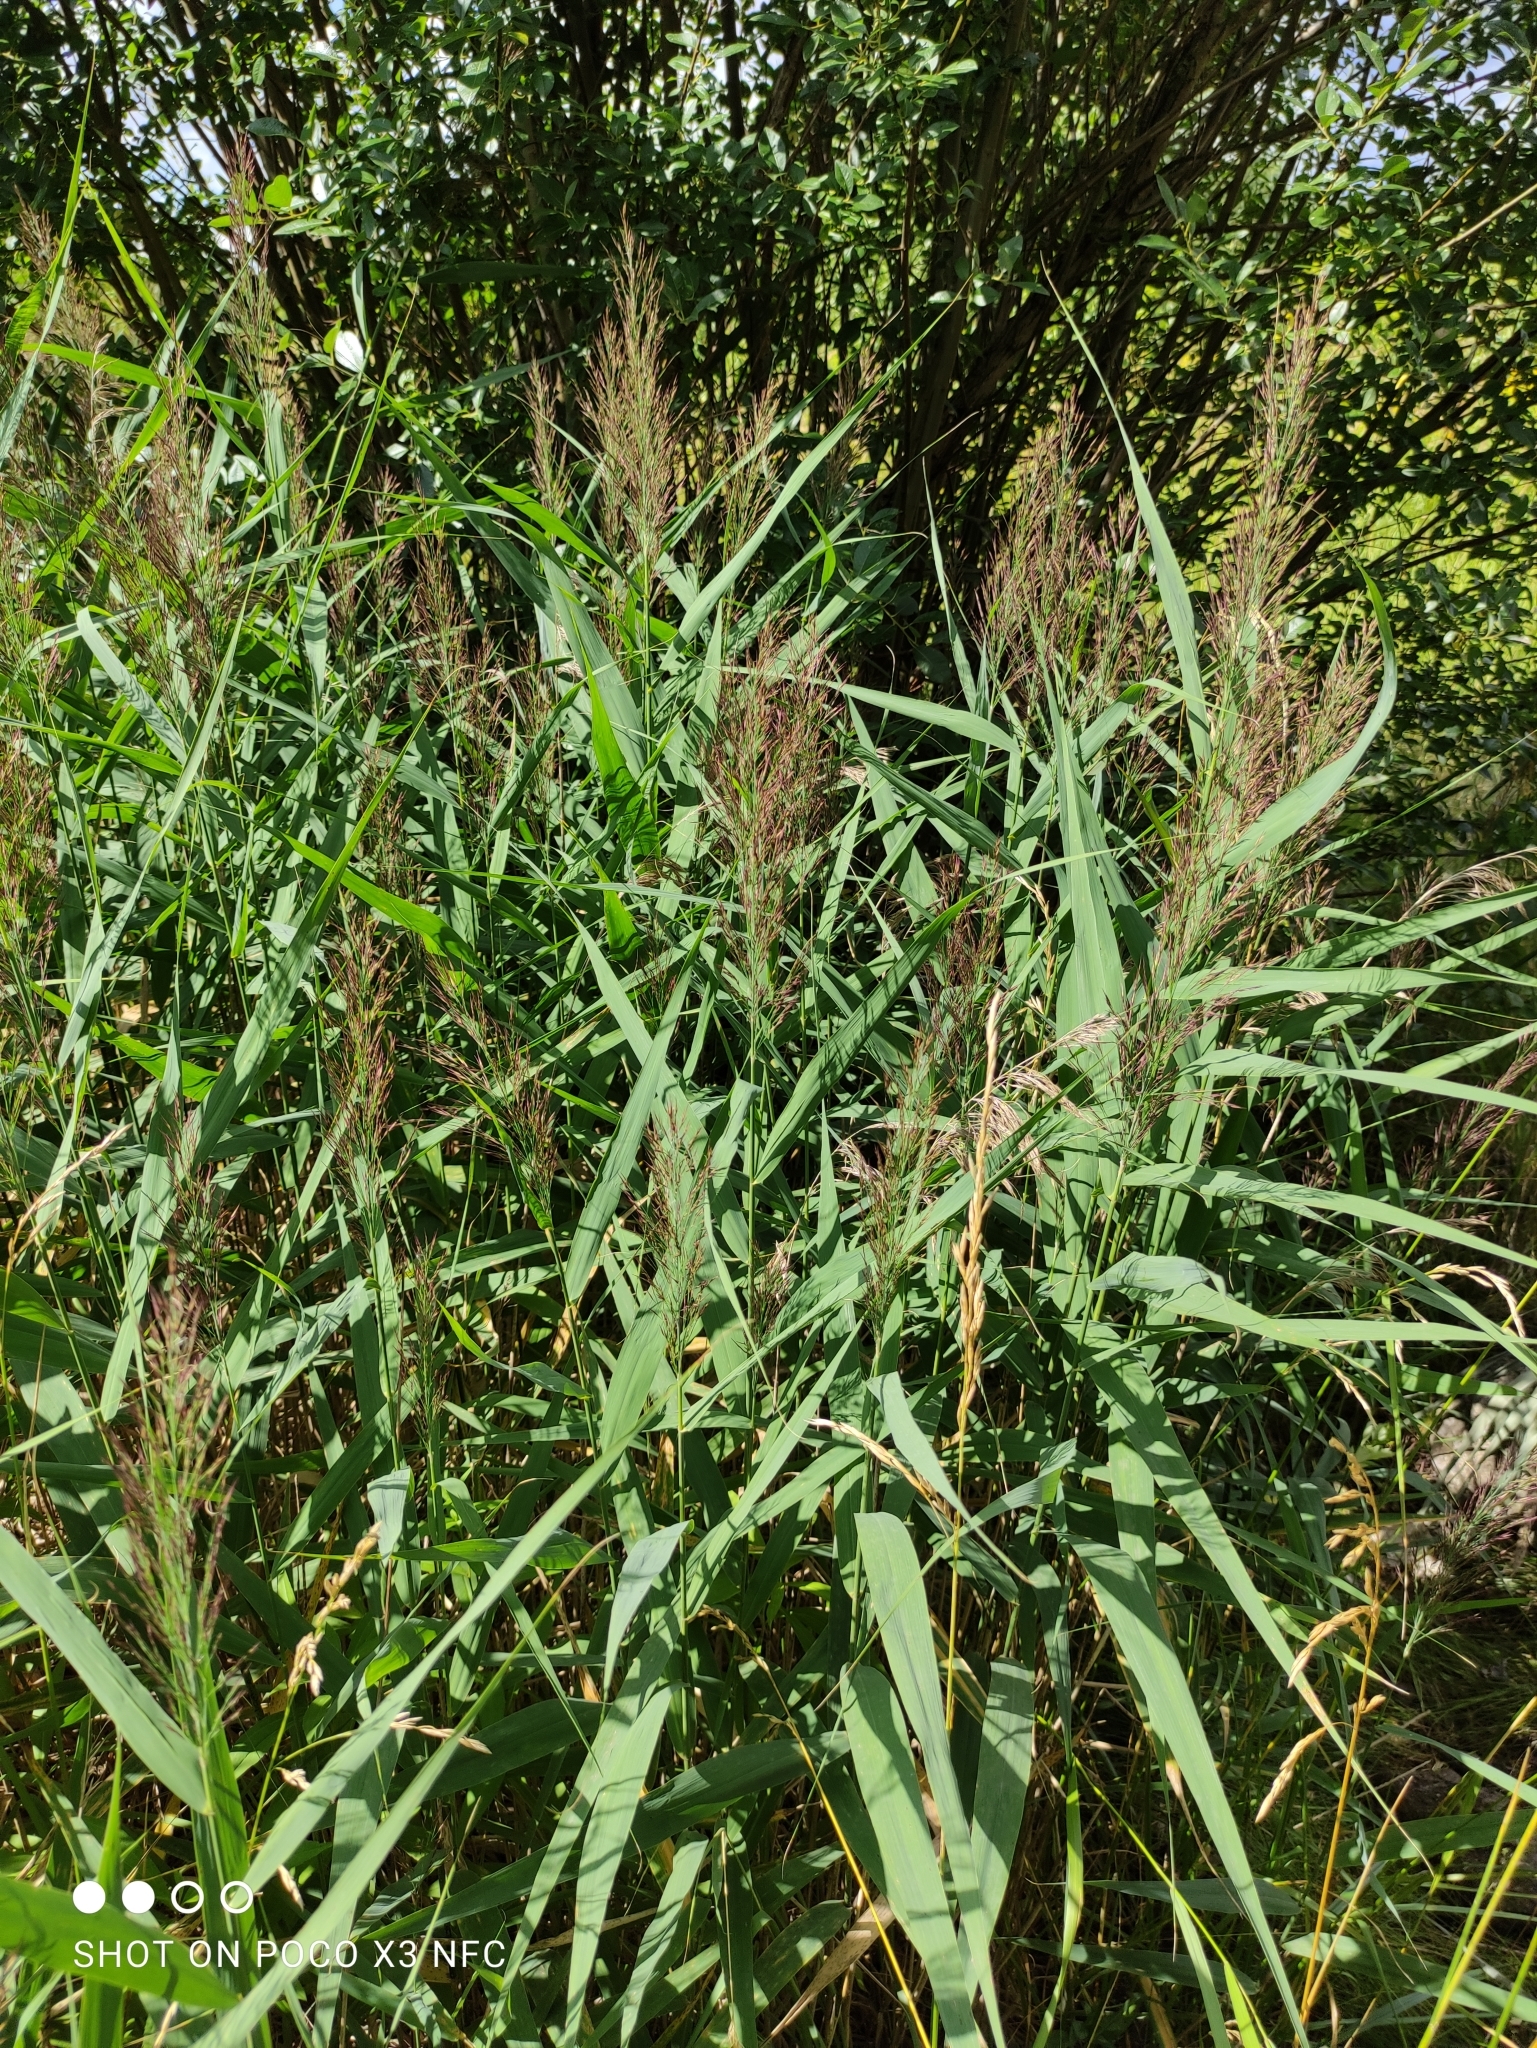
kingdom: Plantae
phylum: Tracheophyta
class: Liliopsida
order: Poales
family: Poaceae
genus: Phragmites
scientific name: Phragmites australis
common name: Common reed
